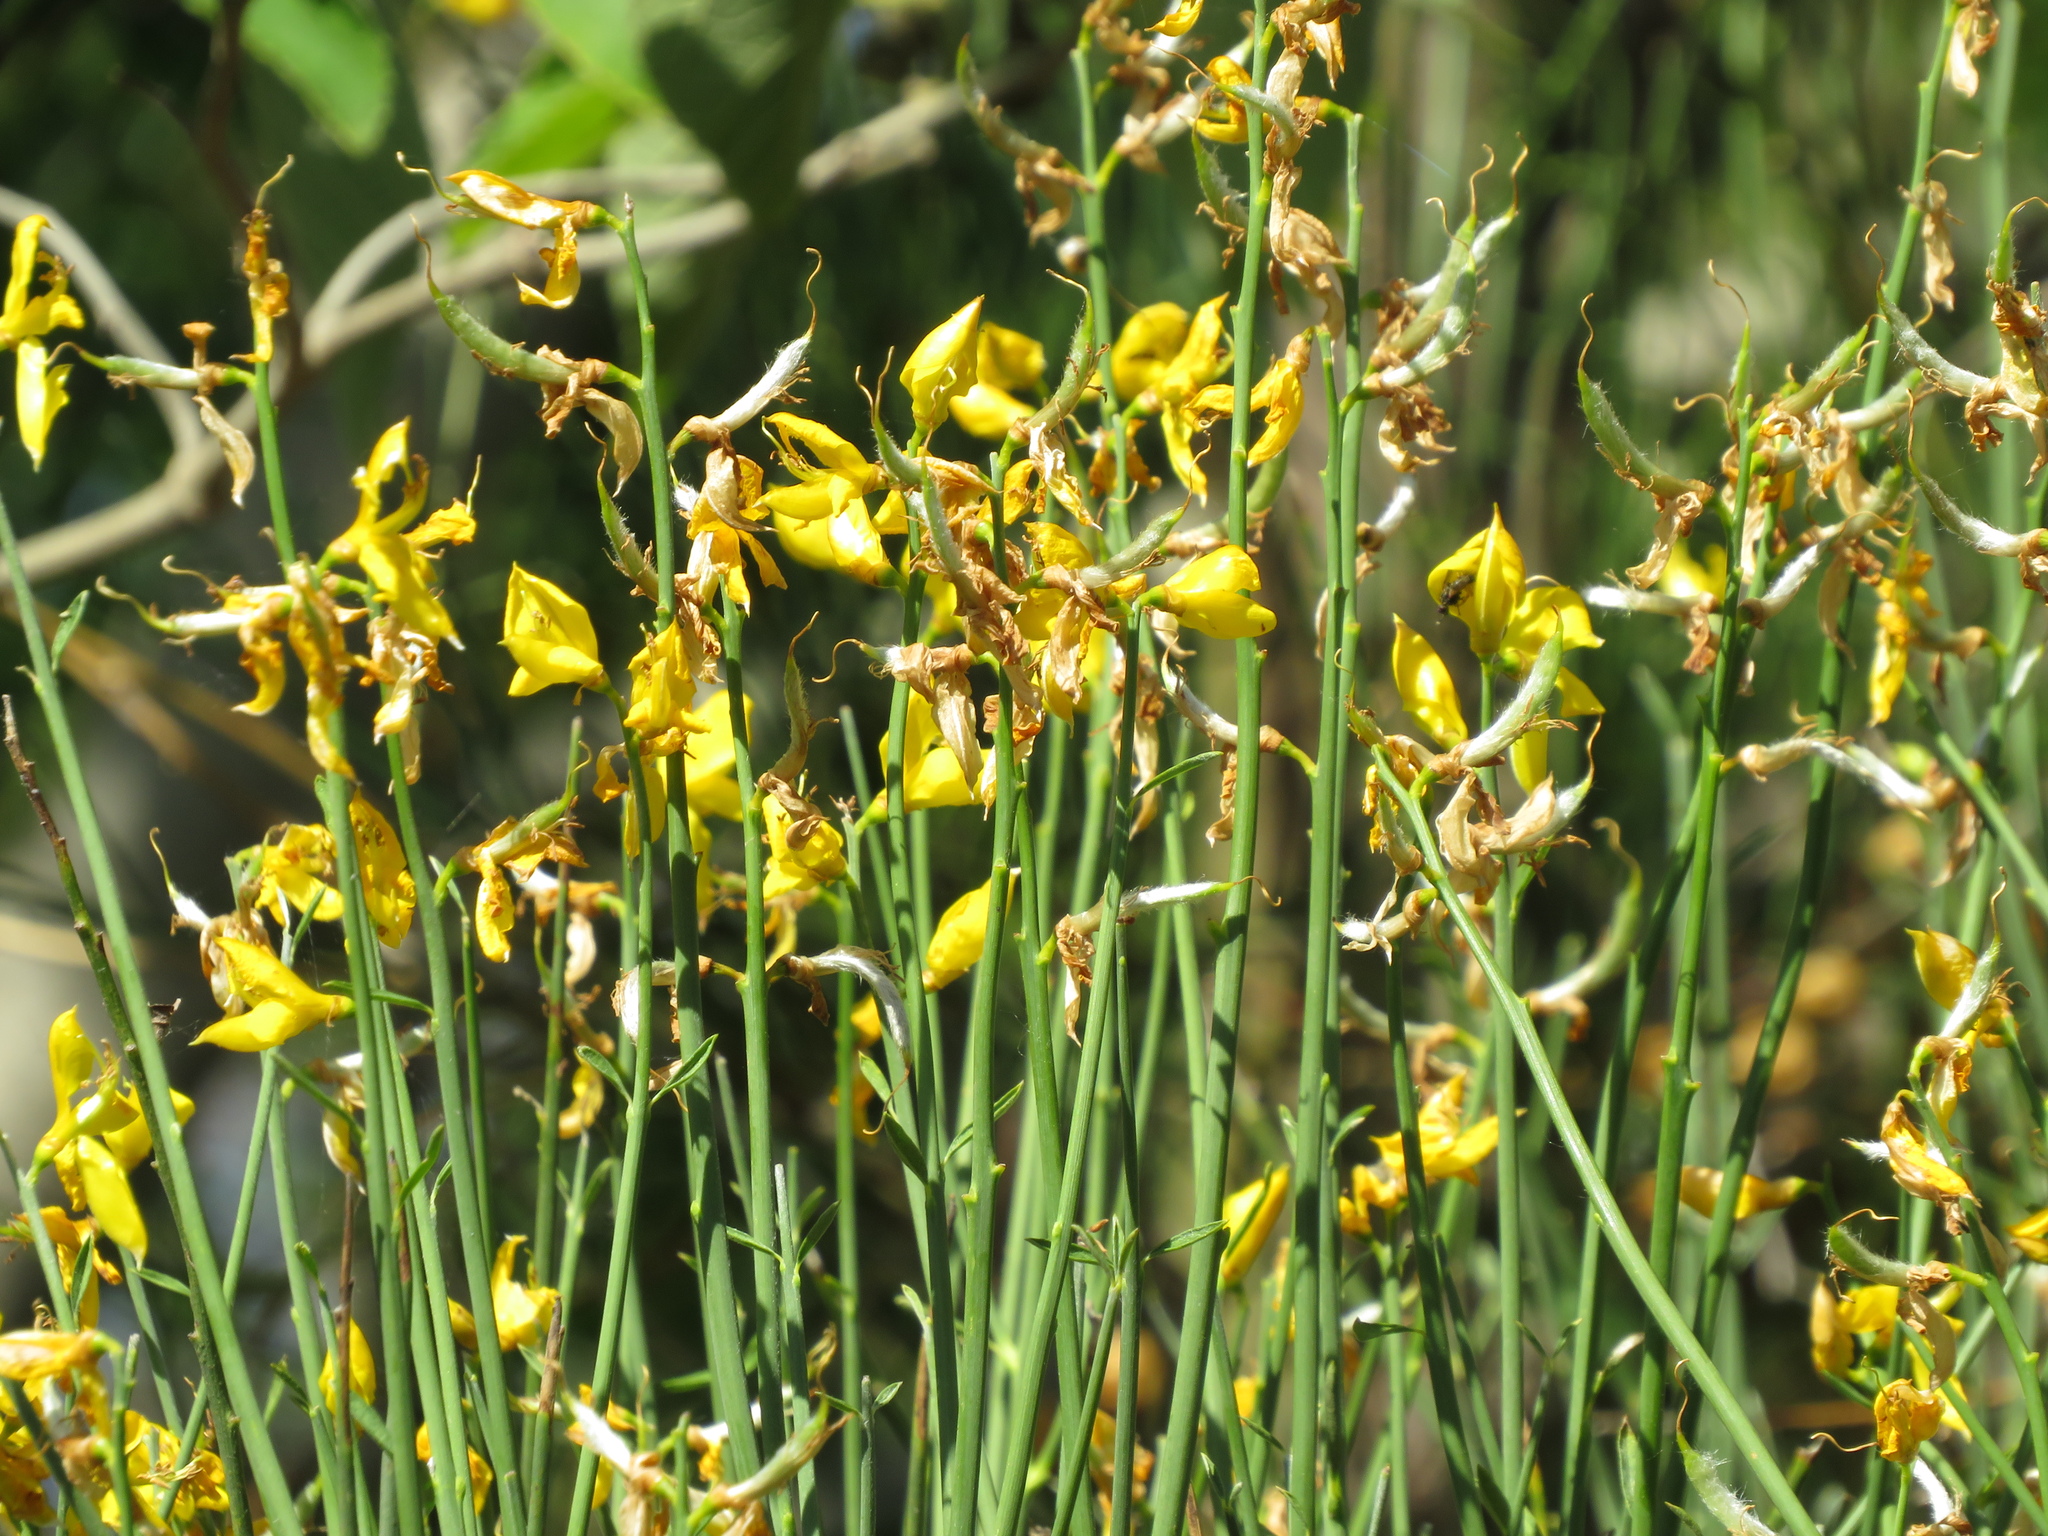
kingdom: Plantae
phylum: Tracheophyta
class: Magnoliopsida
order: Fabales
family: Fabaceae
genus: Spartium
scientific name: Spartium junceum
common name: Spanish broom
